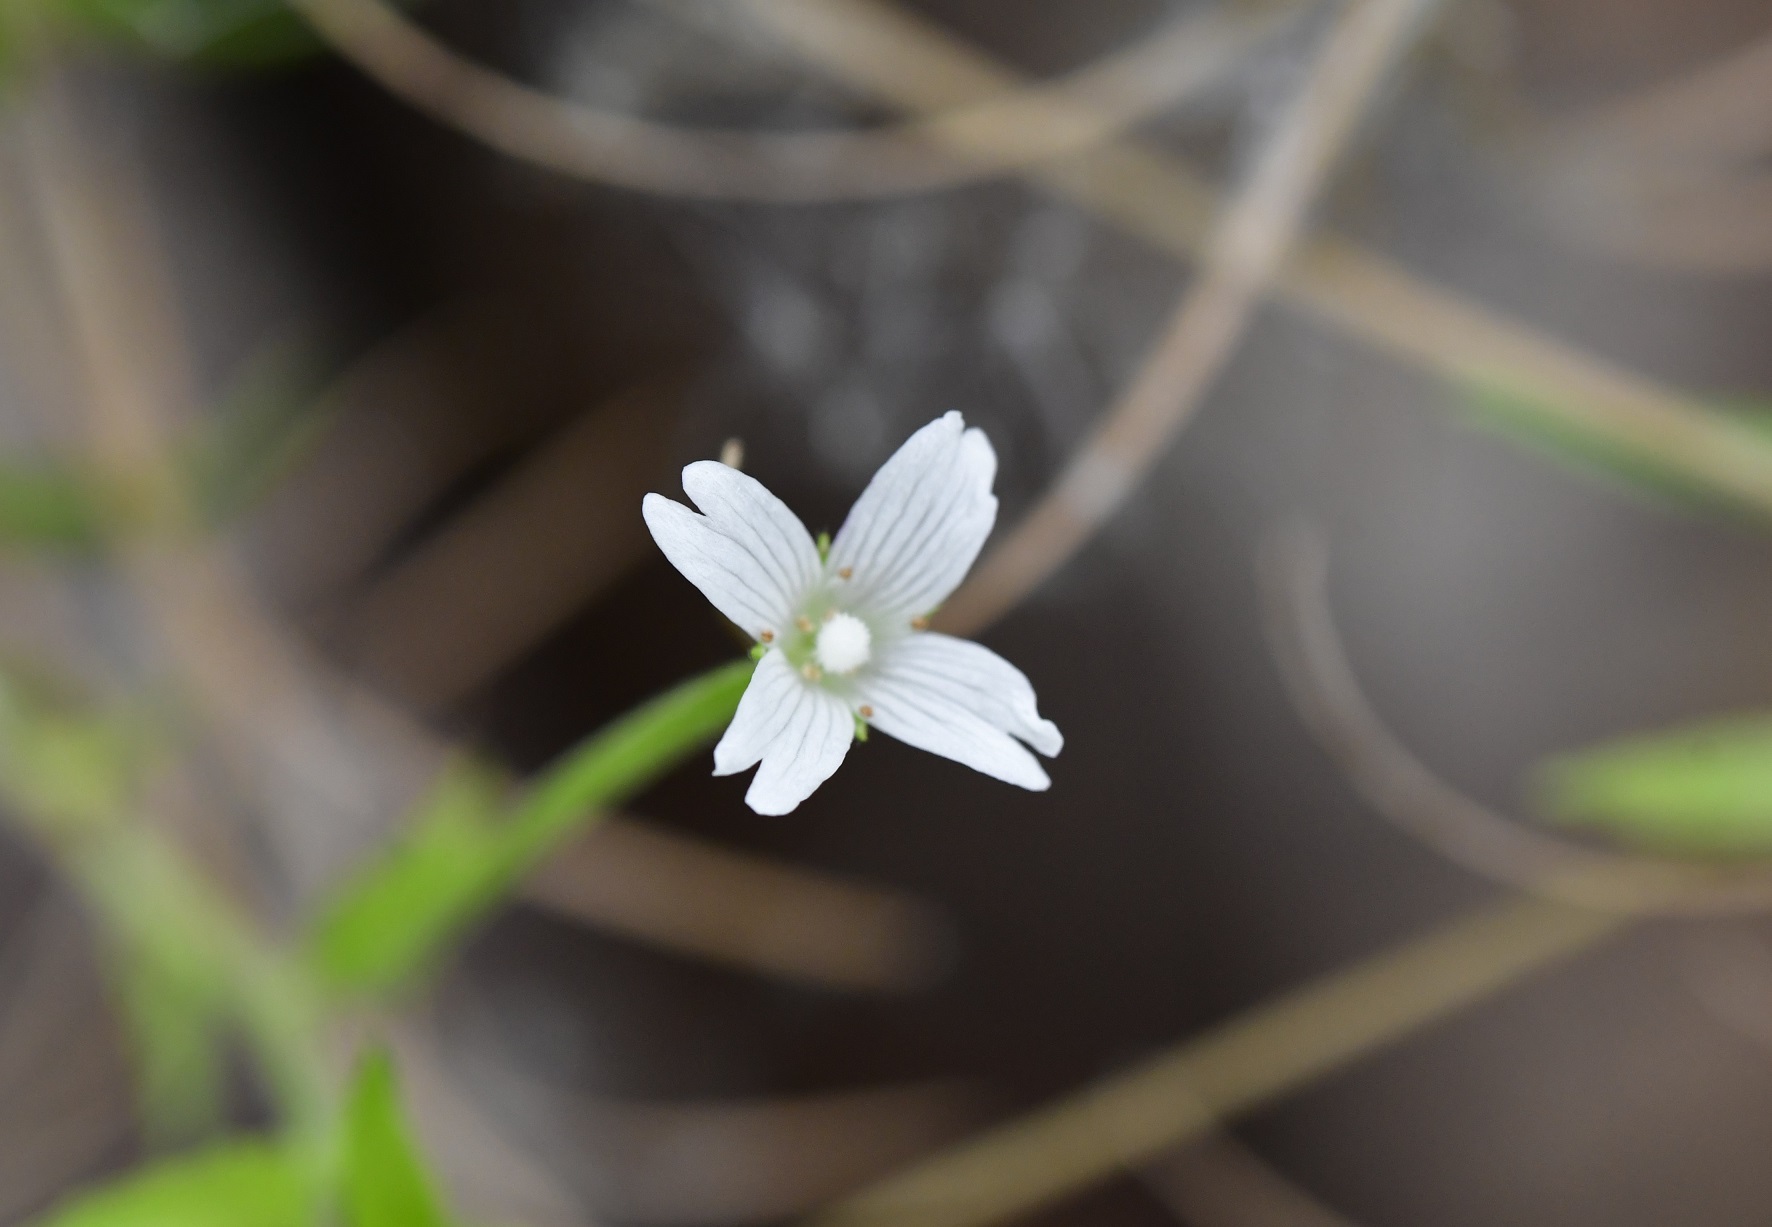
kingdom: Plantae
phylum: Tracheophyta
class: Magnoliopsida
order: Myrtales
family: Onagraceae
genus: Epilobium
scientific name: Epilobium ciliatum
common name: American willowherb
